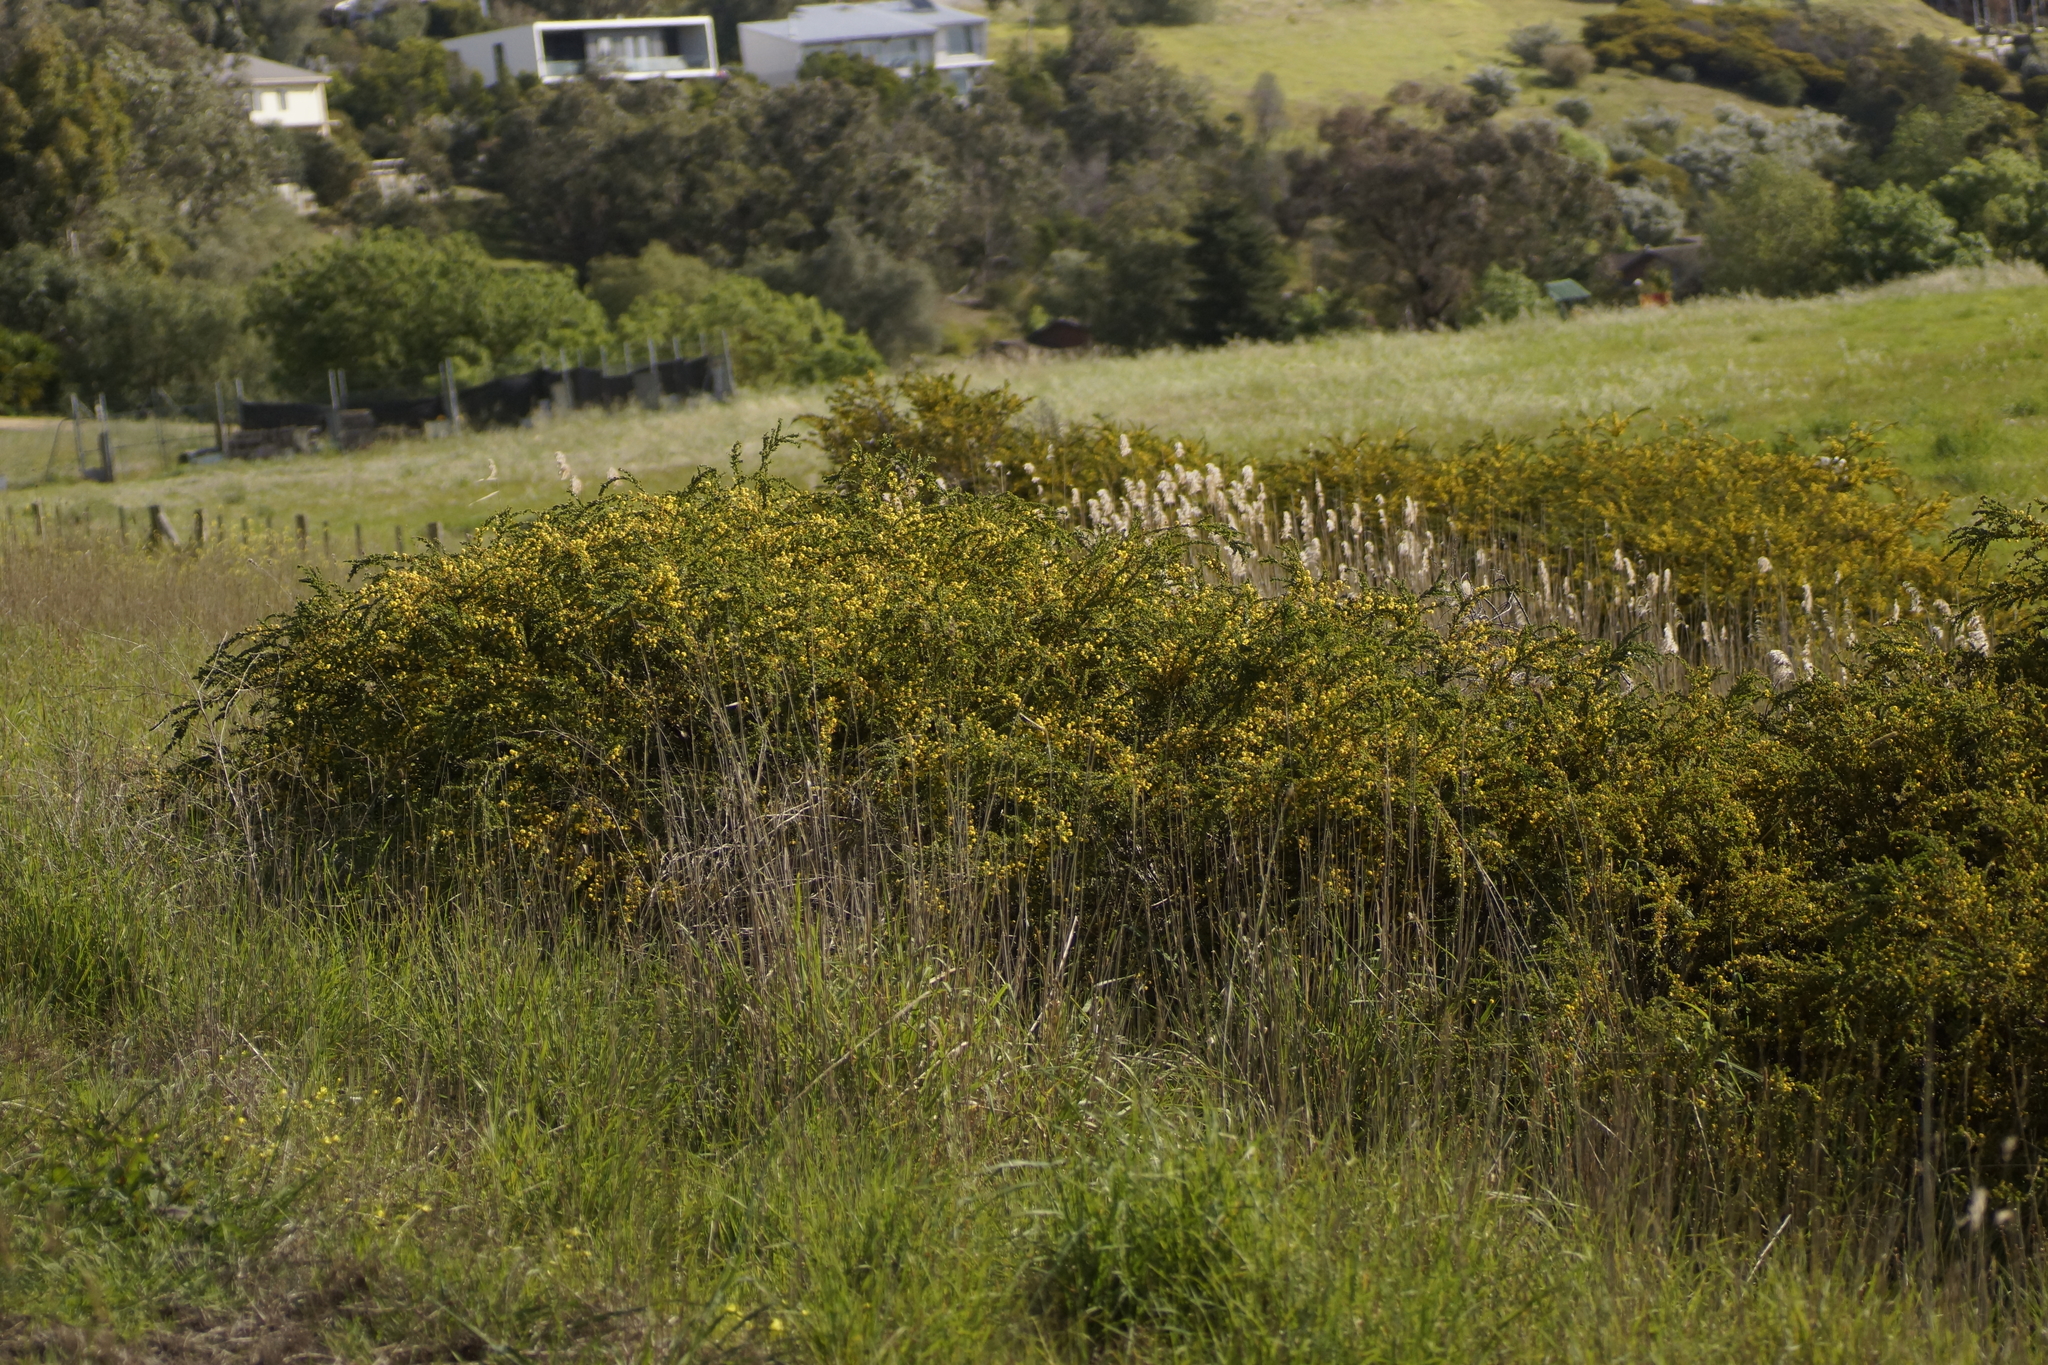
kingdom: Plantae
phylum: Tracheophyta
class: Magnoliopsida
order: Fabales
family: Fabaceae
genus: Acacia
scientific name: Acacia paradoxa
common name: Paradox acacia
